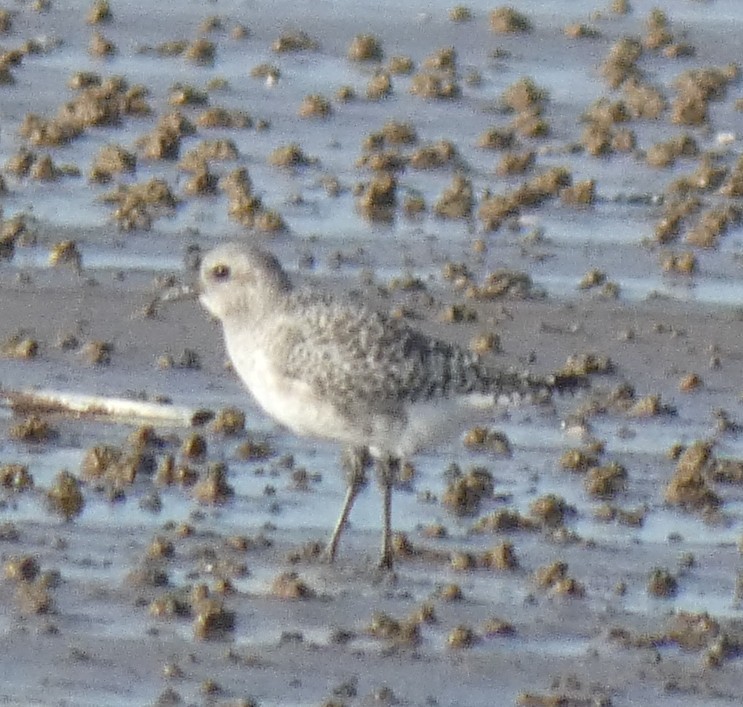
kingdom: Animalia
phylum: Chordata
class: Aves
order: Charadriiformes
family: Charadriidae
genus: Pluvialis
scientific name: Pluvialis squatarola
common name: Grey plover
